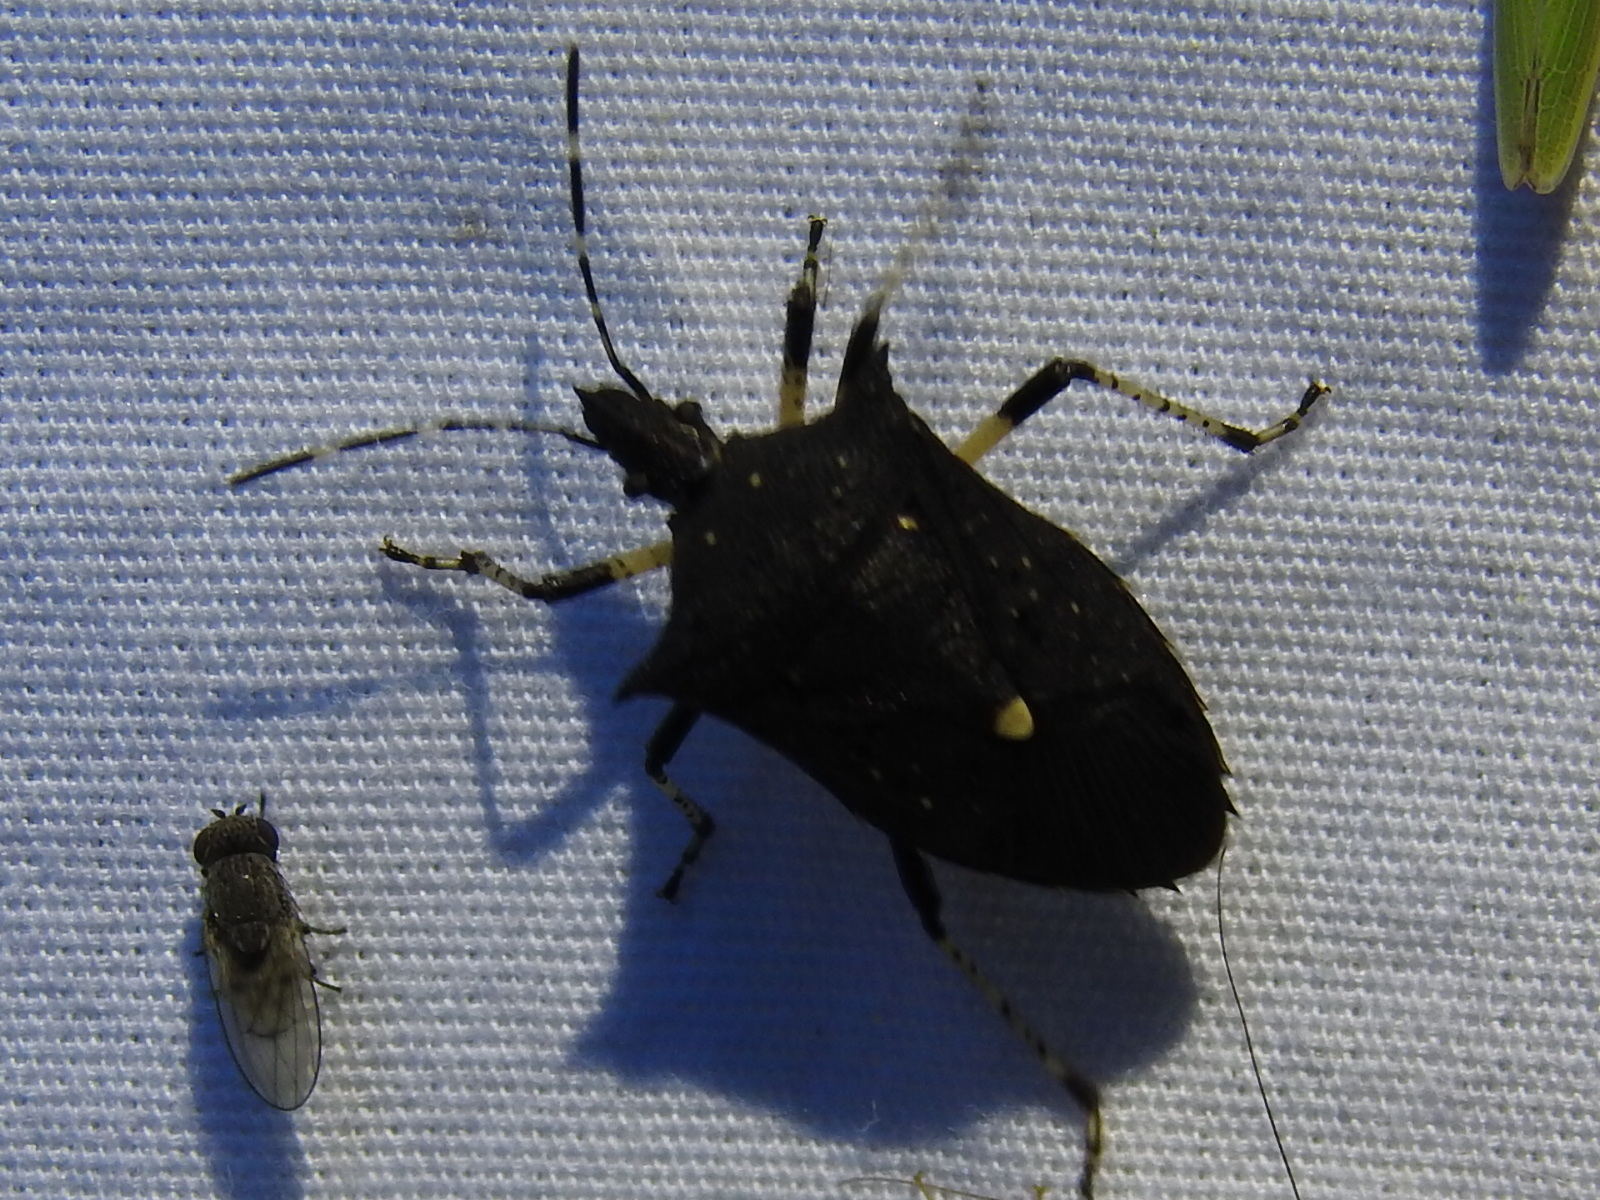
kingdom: Animalia
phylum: Arthropoda
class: Insecta
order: Hemiptera
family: Pentatomidae
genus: Proxys
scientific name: Proxys punctulatus
